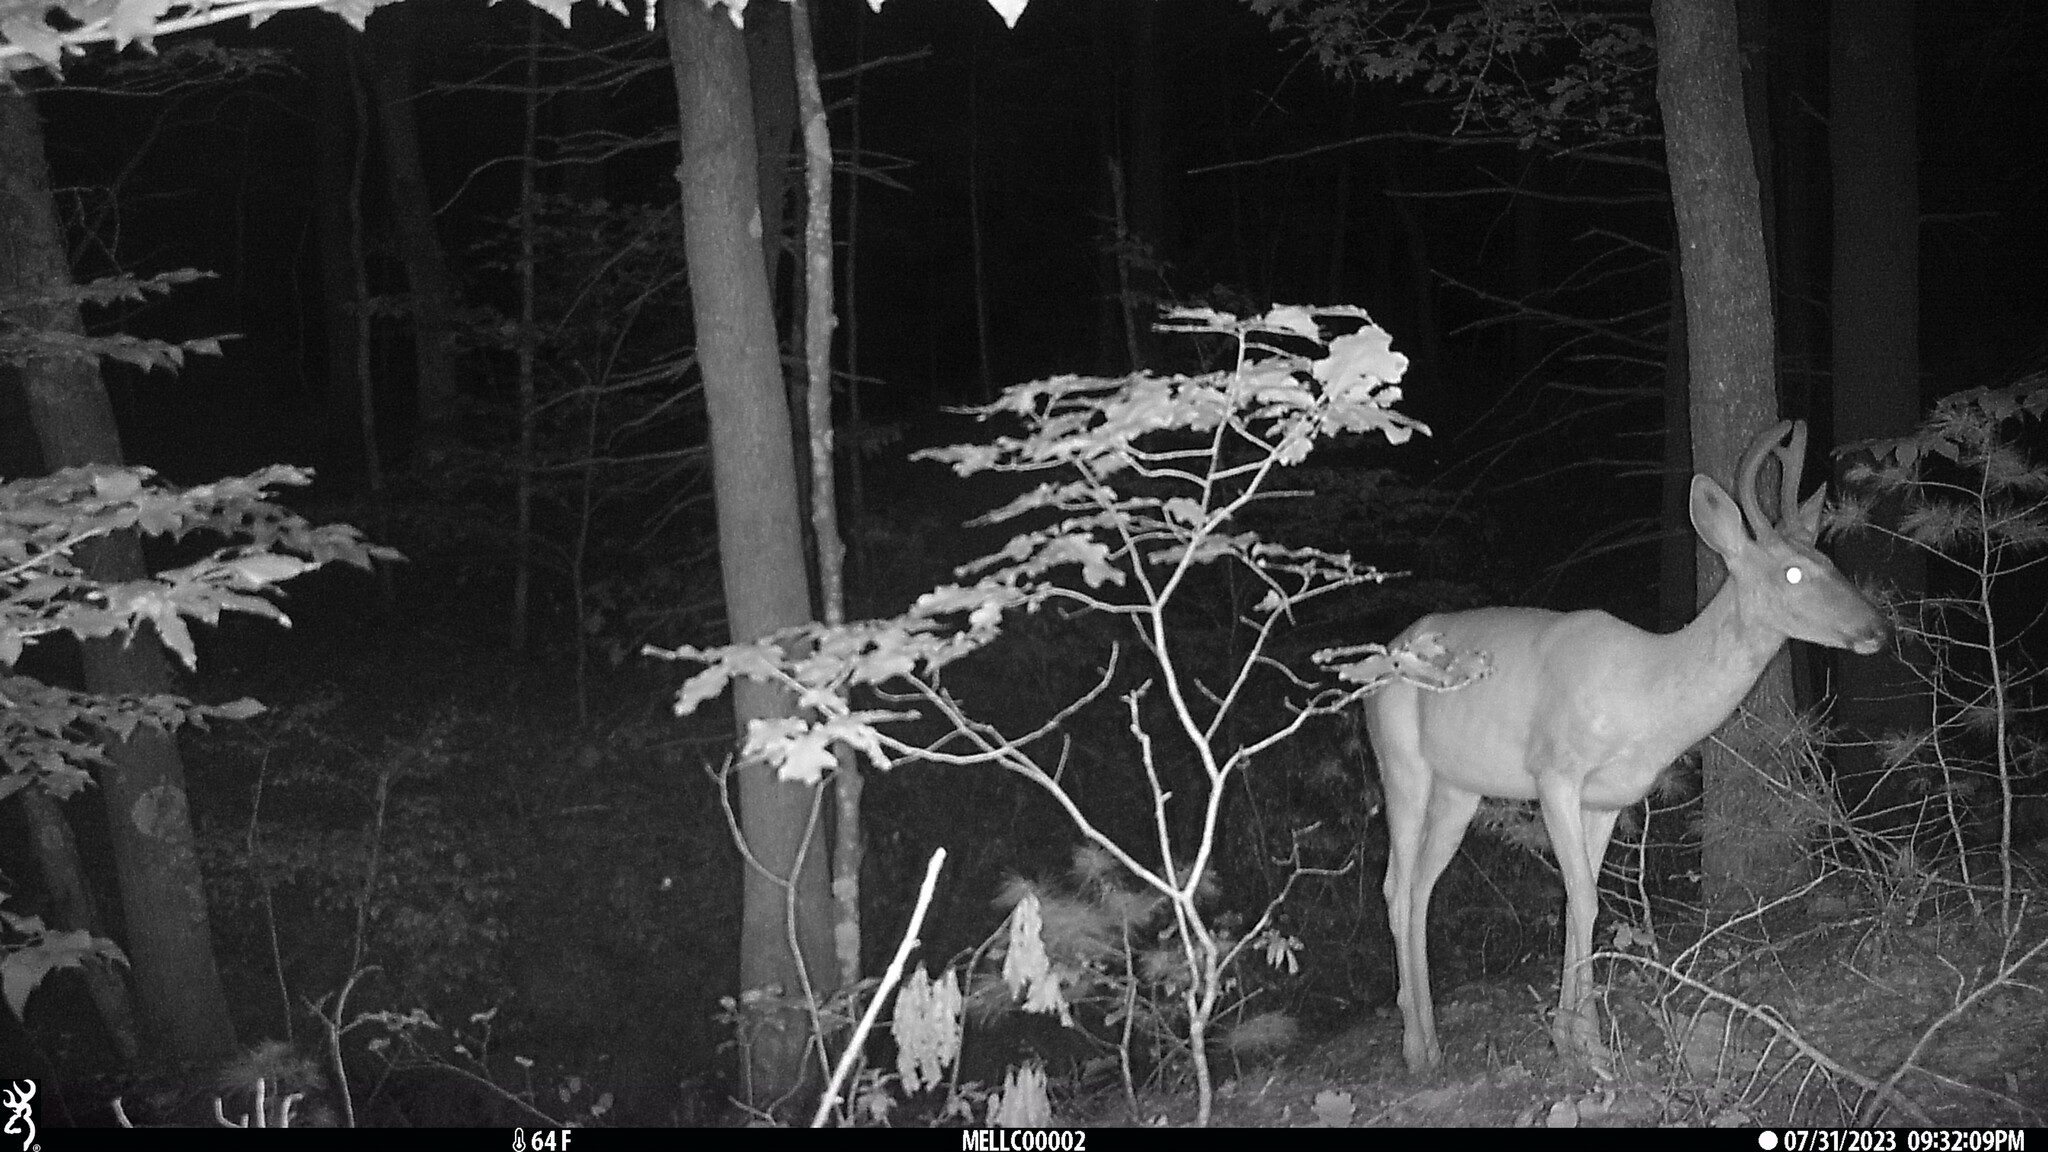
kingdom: Animalia
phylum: Chordata
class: Mammalia
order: Artiodactyla
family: Cervidae
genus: Odocoileus
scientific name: Odocoileus virginianus
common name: White-tailed deer
